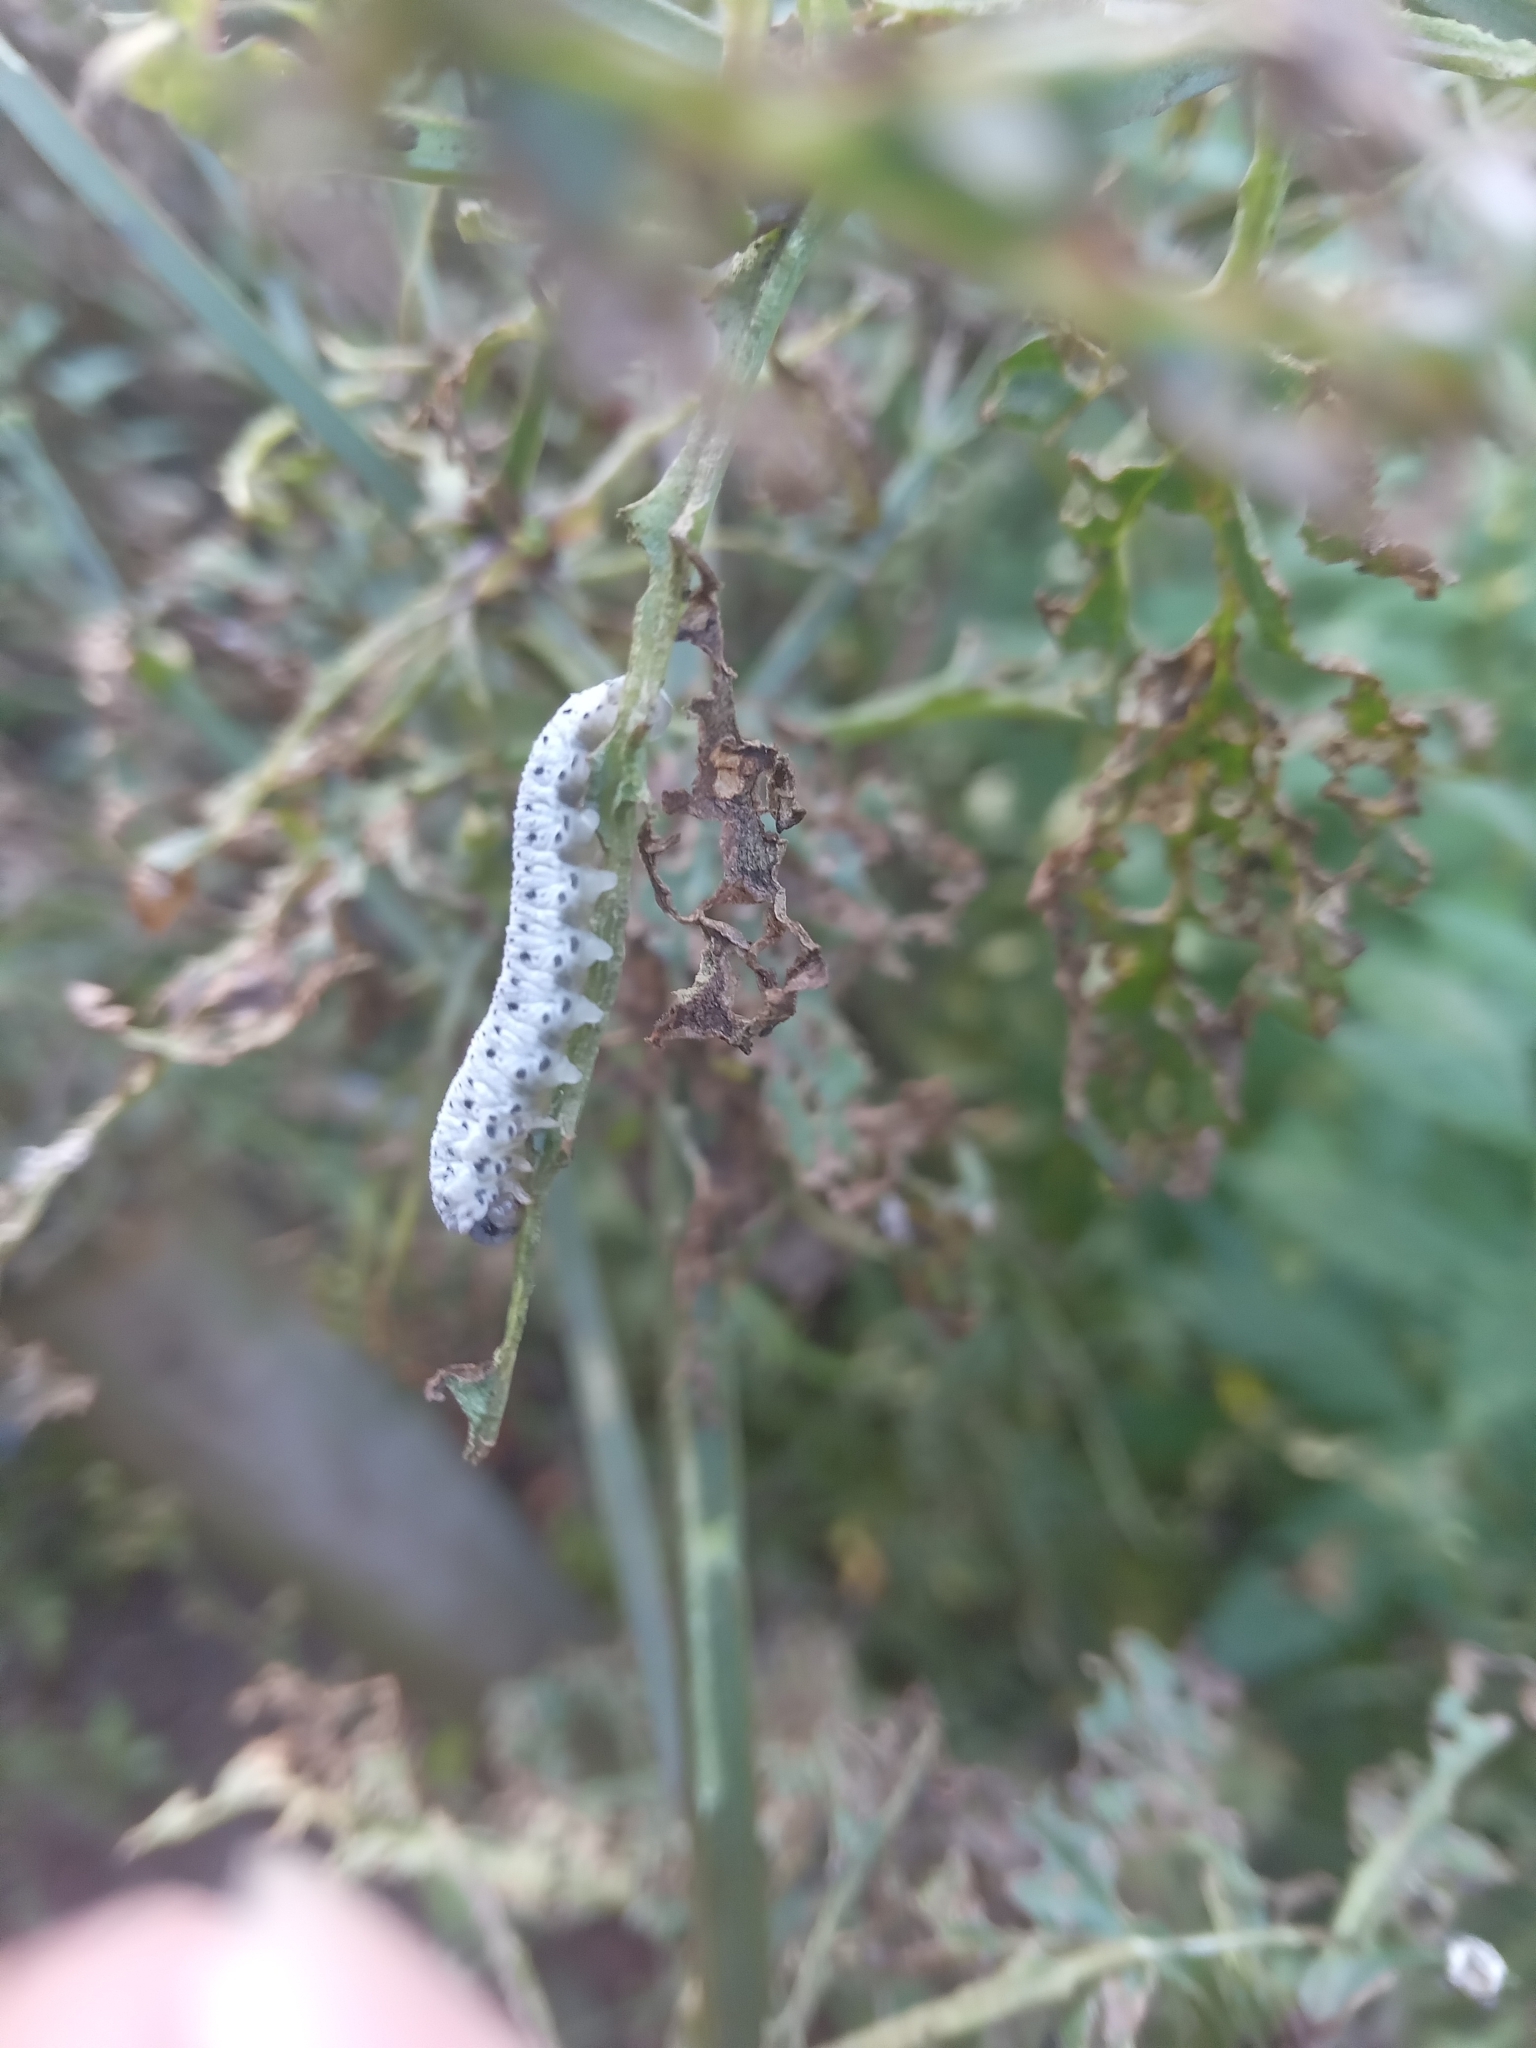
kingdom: Animalia
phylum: Arthropoda
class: Insecta
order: Hymenoptera
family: Tenthredinidae
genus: Tenthredo
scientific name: Tenthredo scrophulariae
